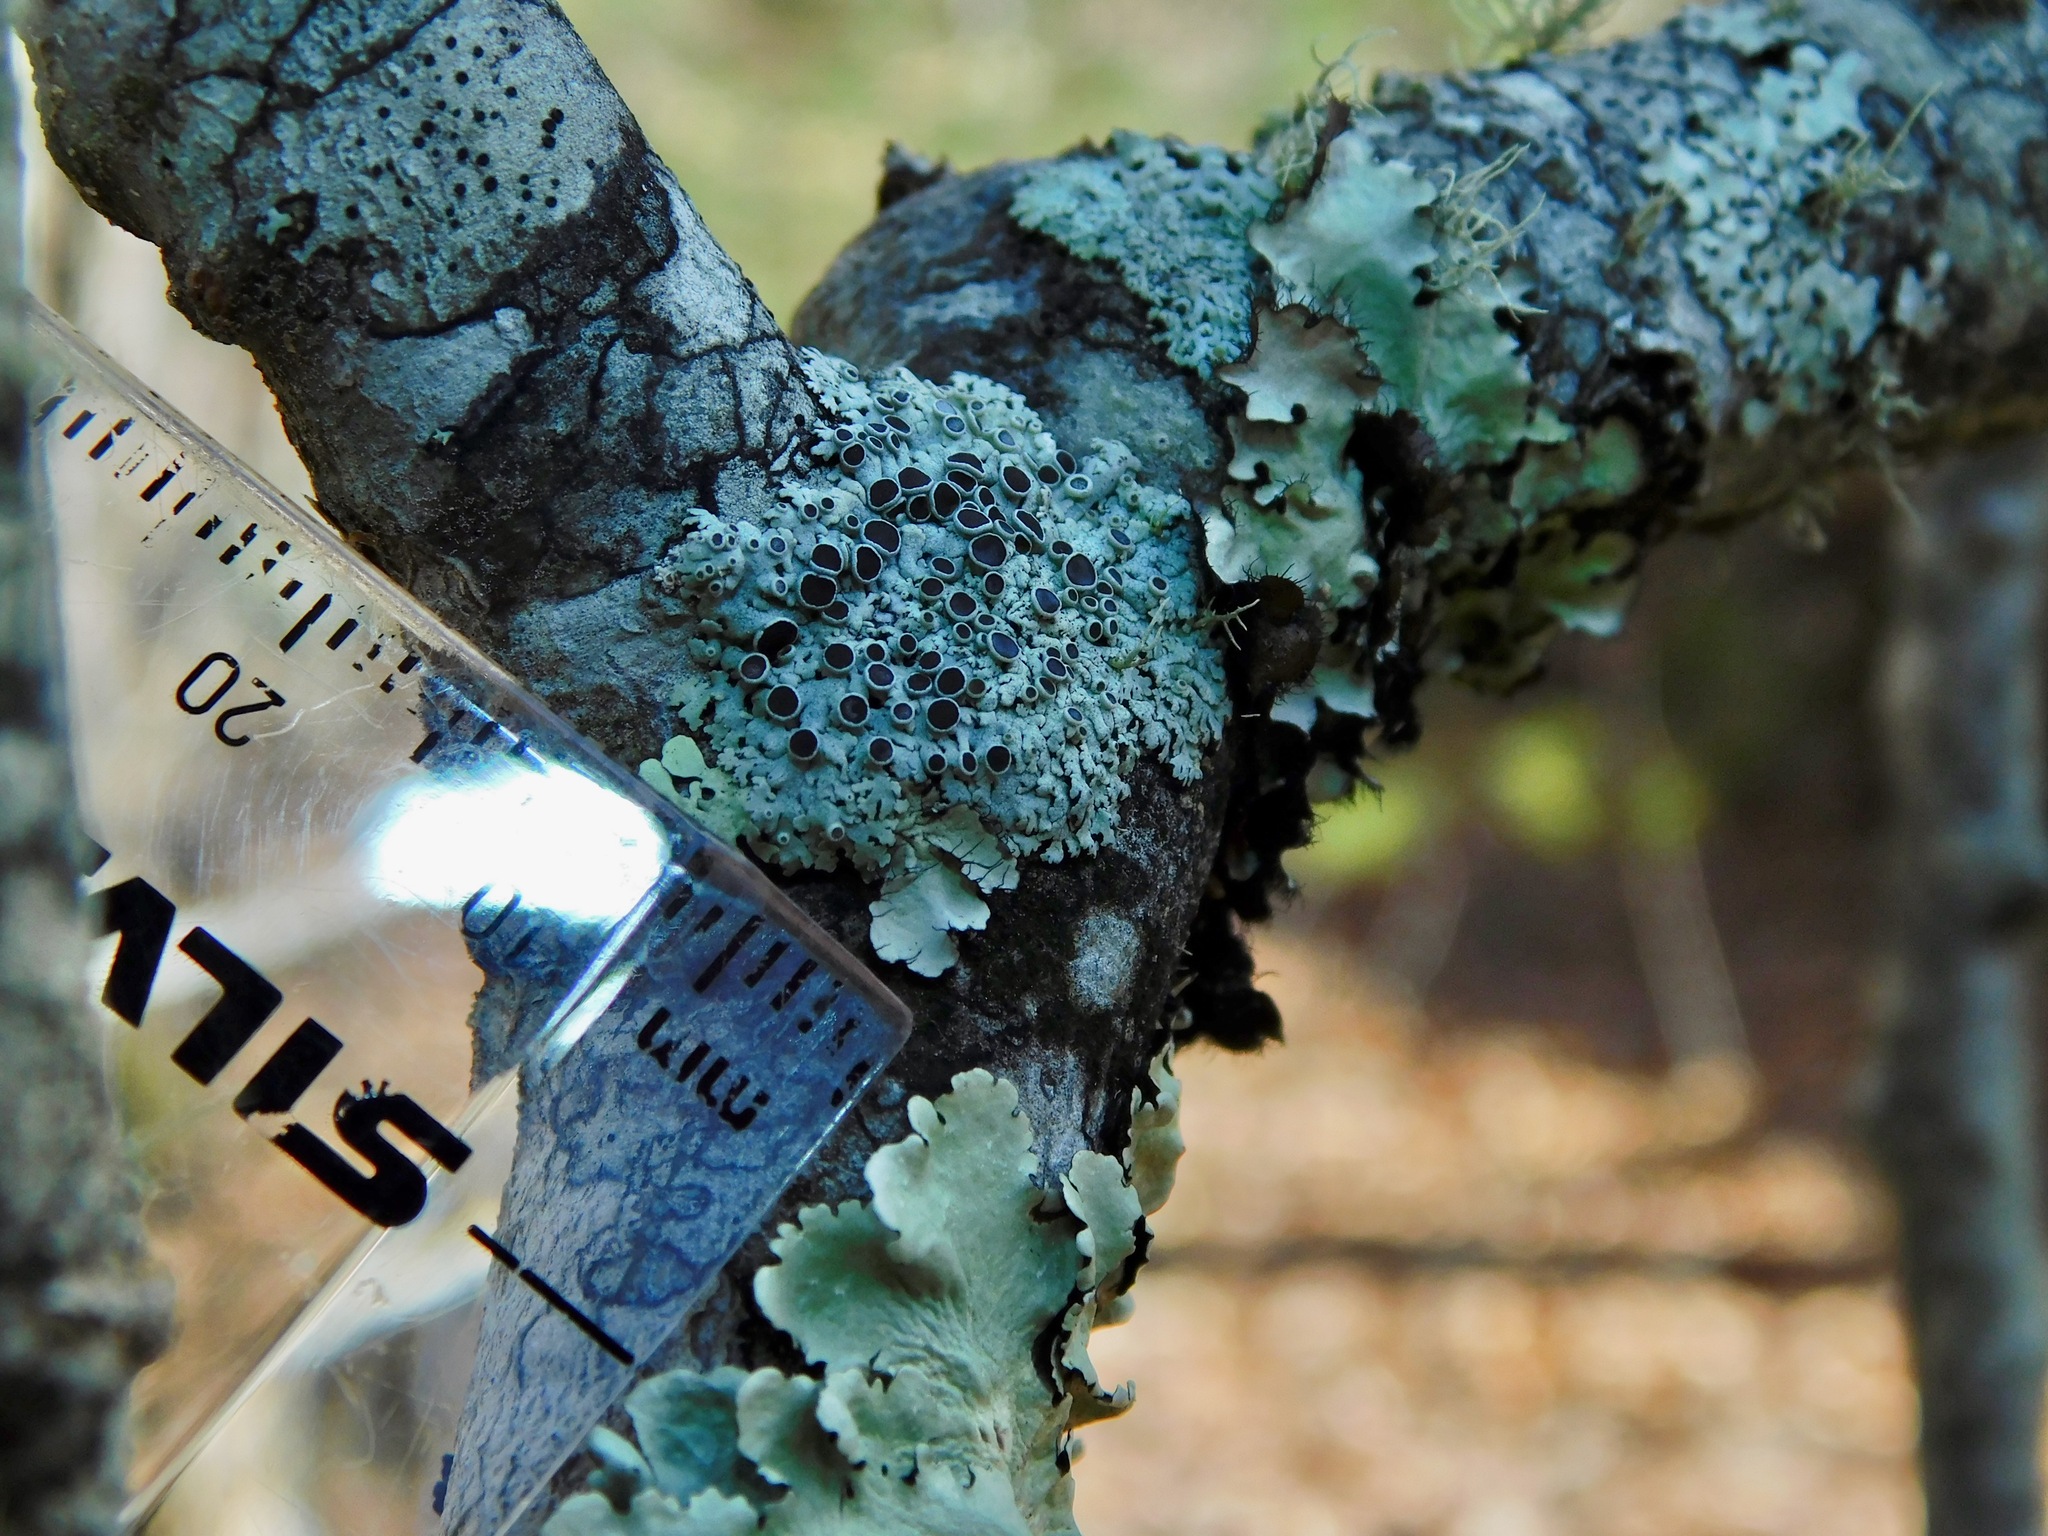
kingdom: Fungi
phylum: Ascomycota
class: Lecanoromycetes
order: Caliciales
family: Physciaceae
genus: Physcia
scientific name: Physcia aipolia
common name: Hoary rosette lichen
